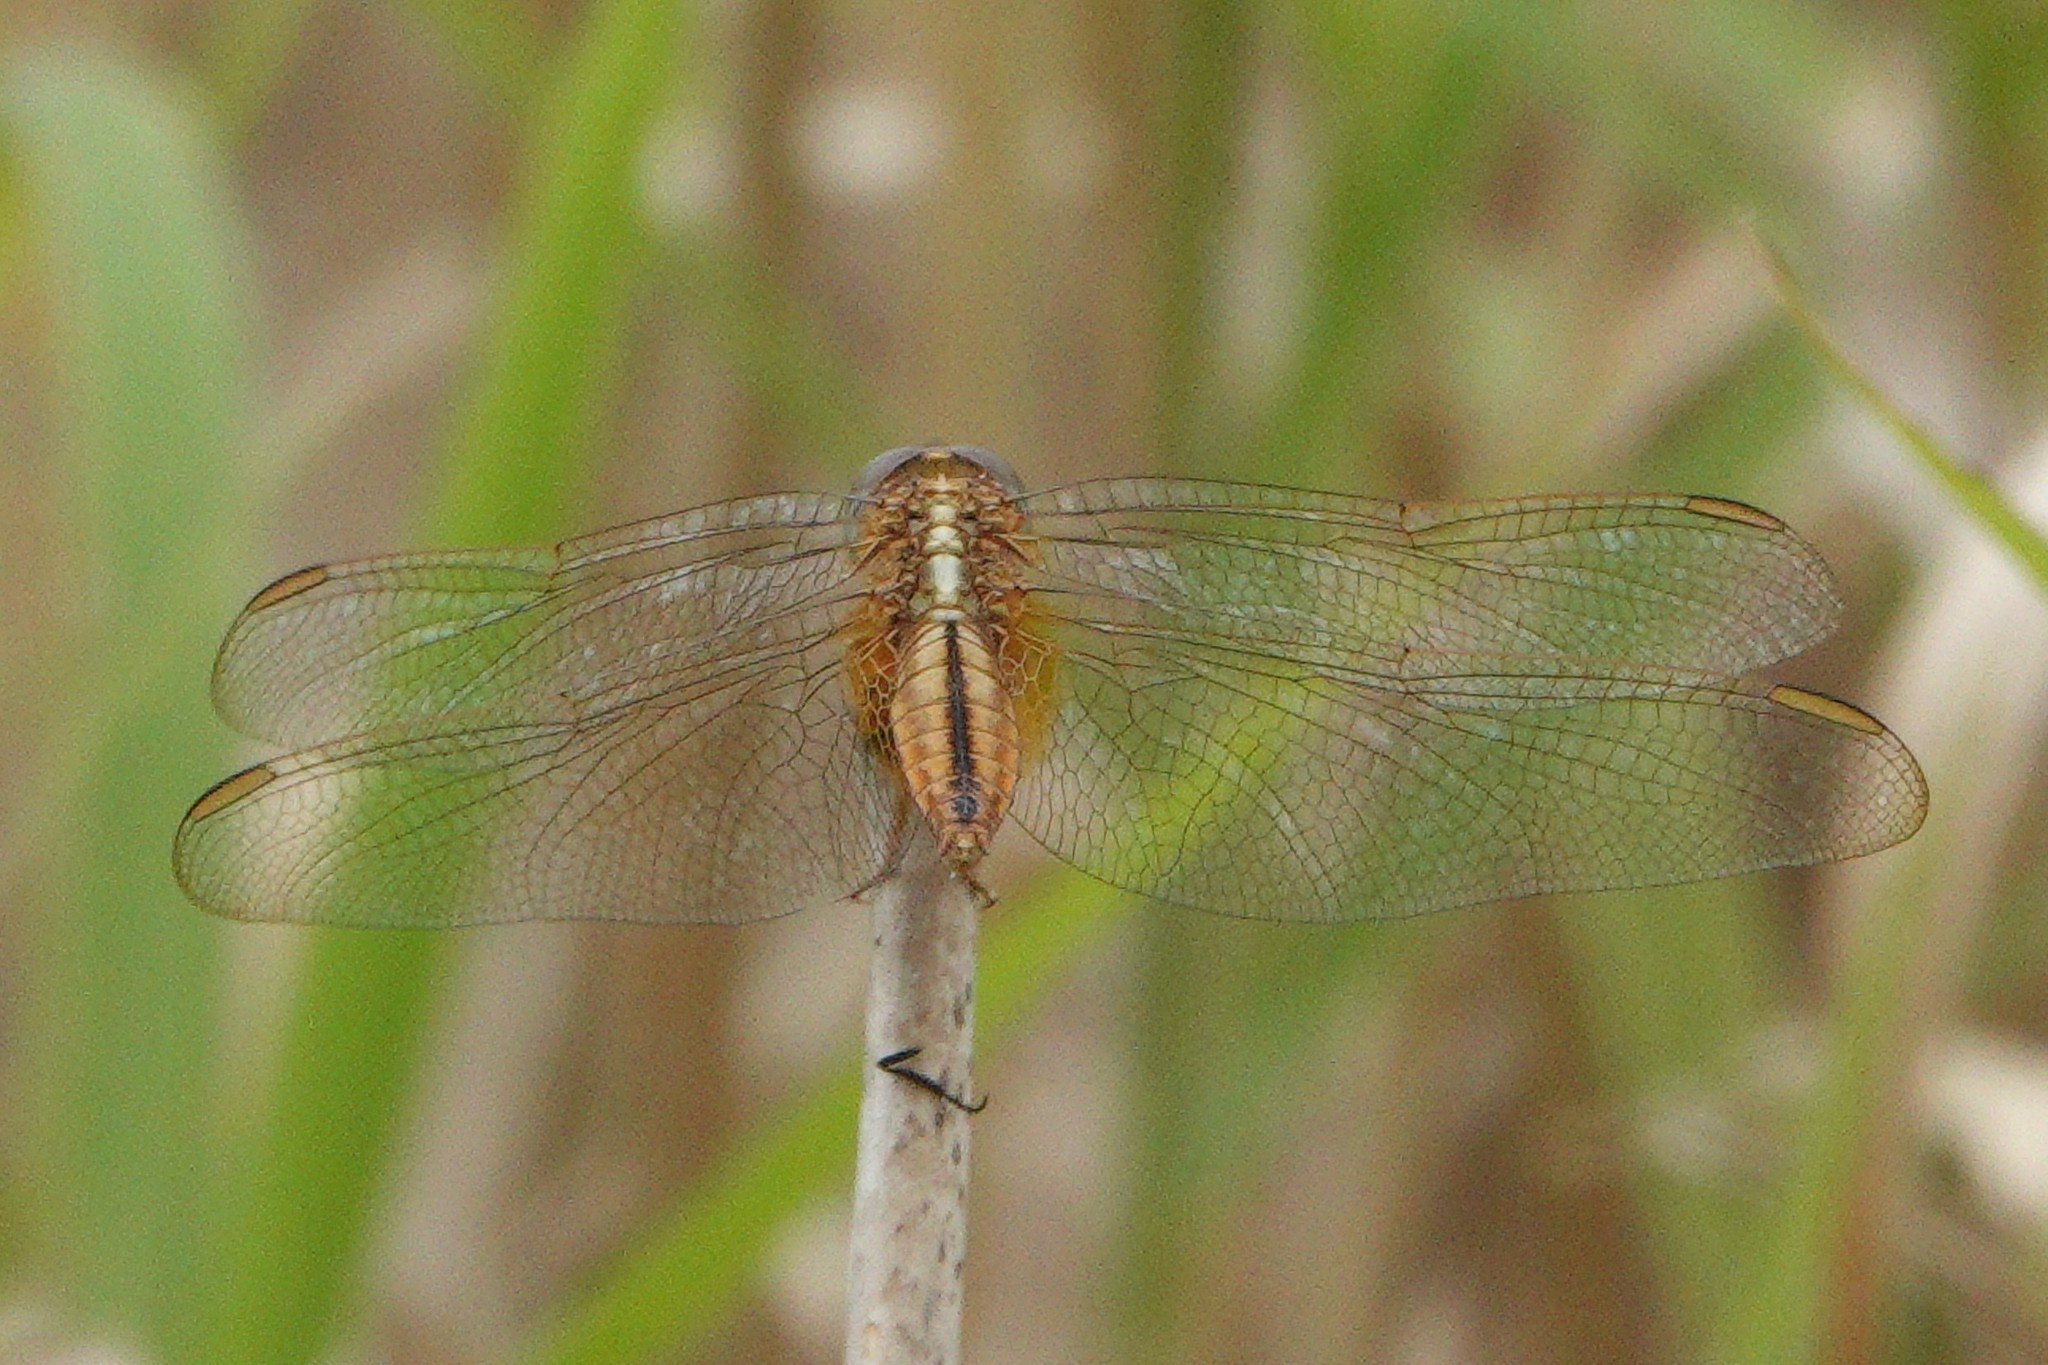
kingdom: Animalia
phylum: Arthropoda
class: Insecta
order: Odonata
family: Libellulidae
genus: Crocothemis
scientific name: Crocothemis servilia
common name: Scarlet skimmer
